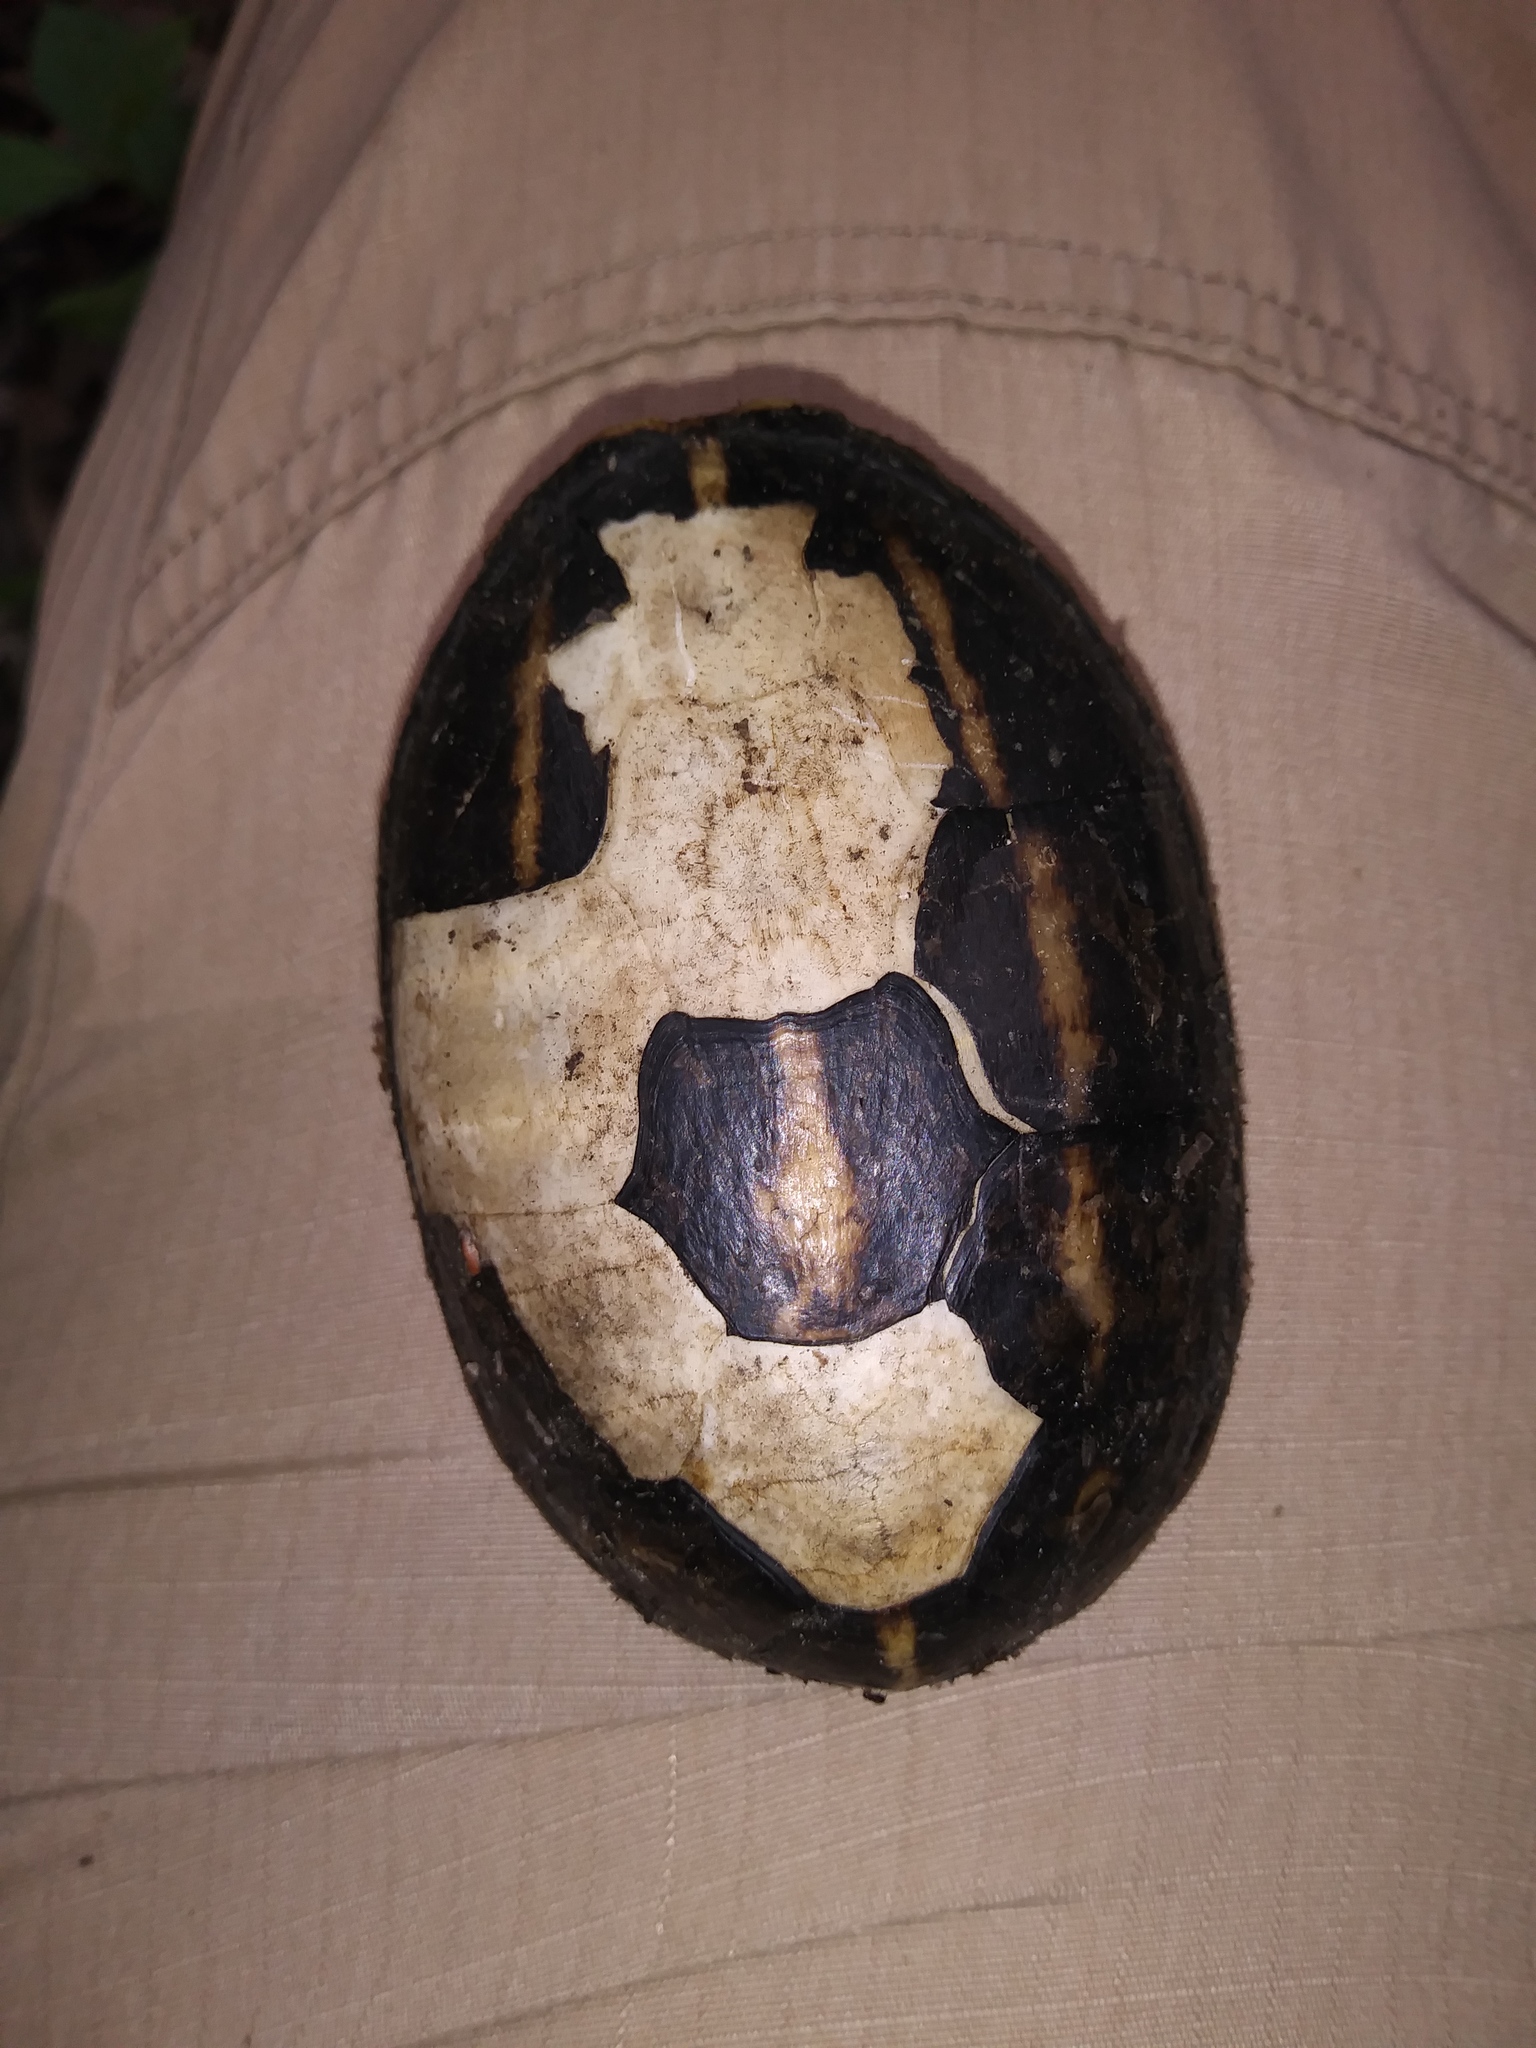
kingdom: Animalia
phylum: Chordata
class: Testudines
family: Kinosternidae
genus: Kinosternon
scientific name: Kinosternon baurii
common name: Striped mud turtle
